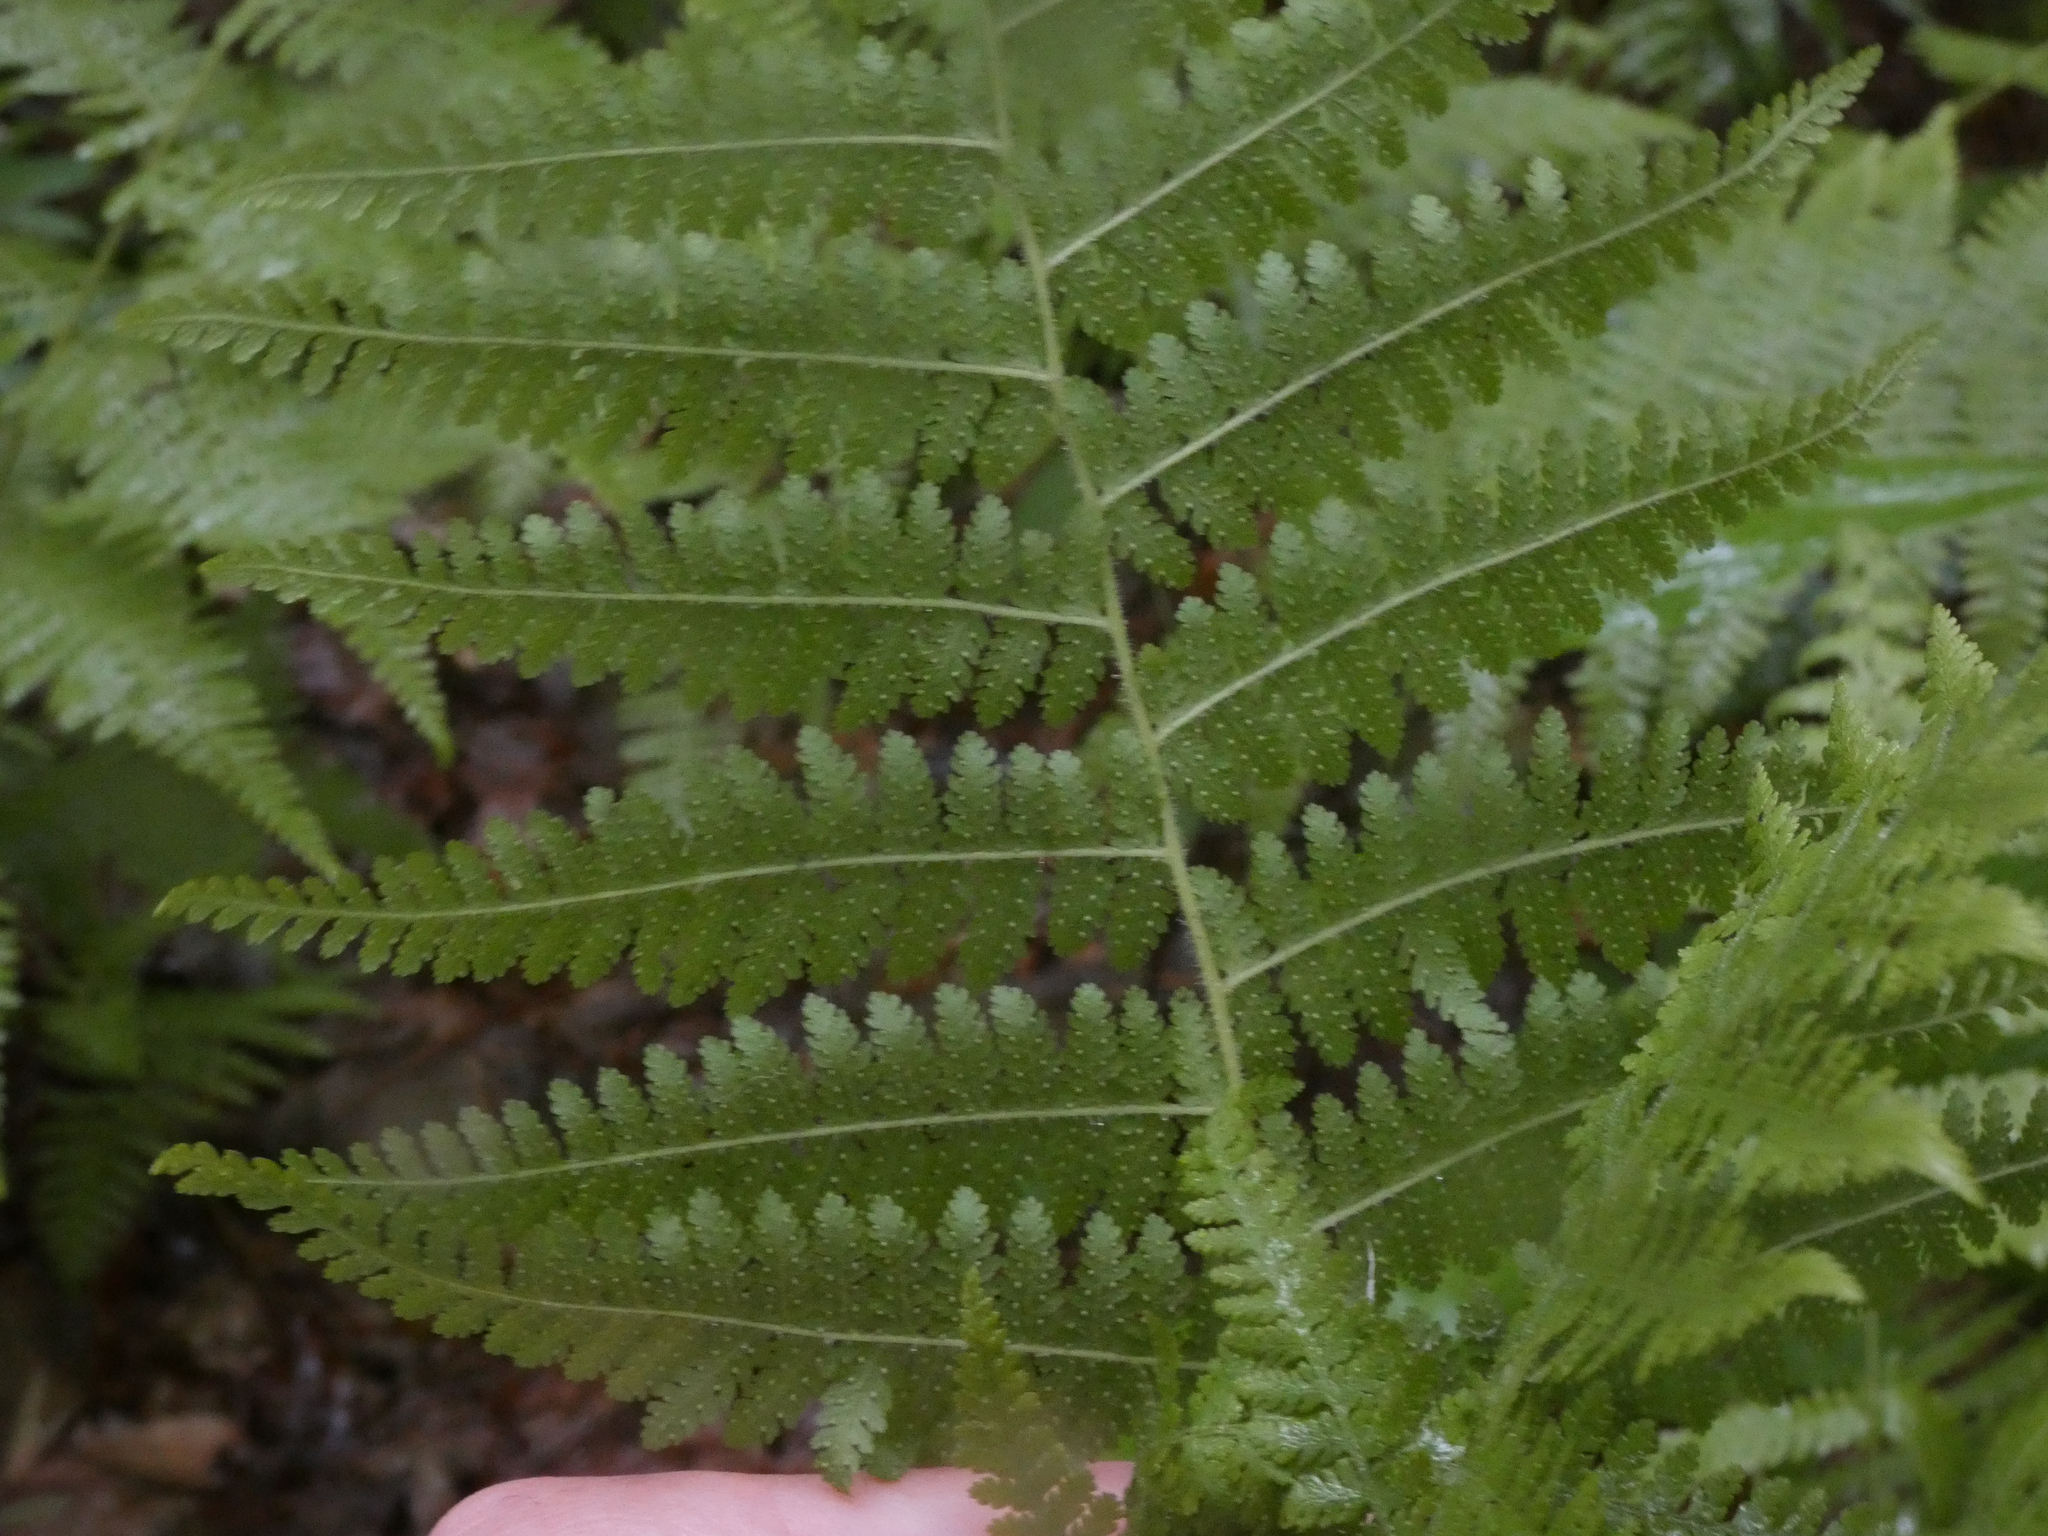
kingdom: Plantae
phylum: Tracheophyta
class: Polypodiopsida
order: Polypodiales
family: Dennstaedtiaceae
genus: Sitobolium
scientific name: Sitobolium punctilobum
